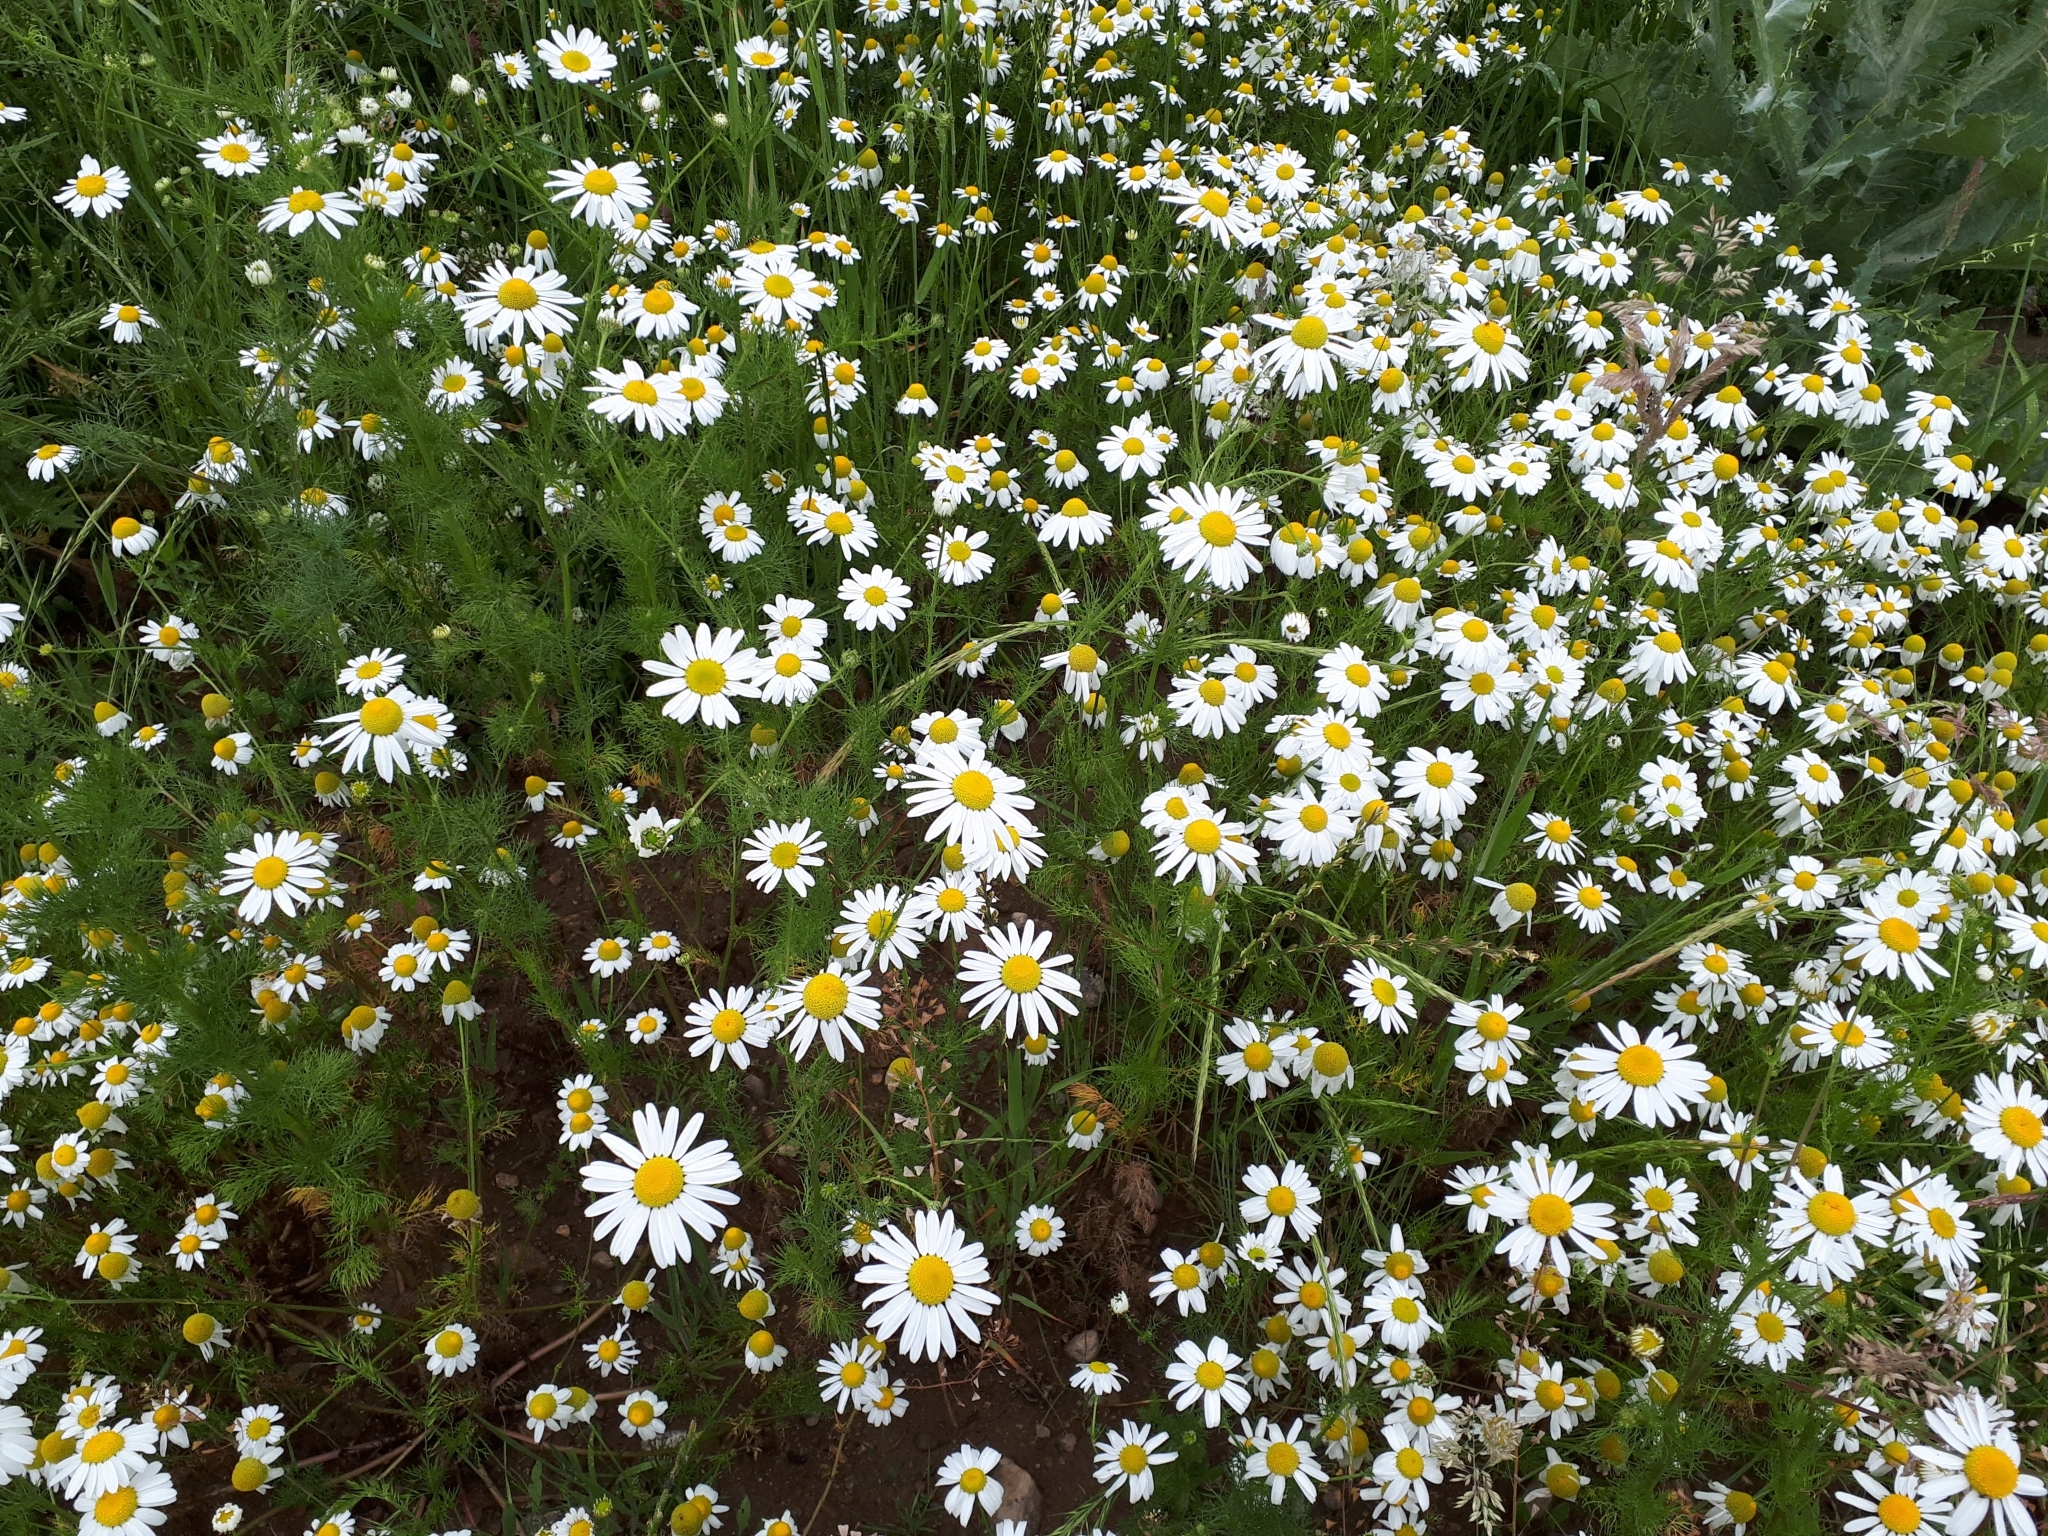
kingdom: Plantae
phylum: Tracheophyta
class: Magnoliopsida
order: Asterales
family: Asteraceae
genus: Tripleurospermum
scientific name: Tripleurospermum inodorum
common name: Scentless mayweed
